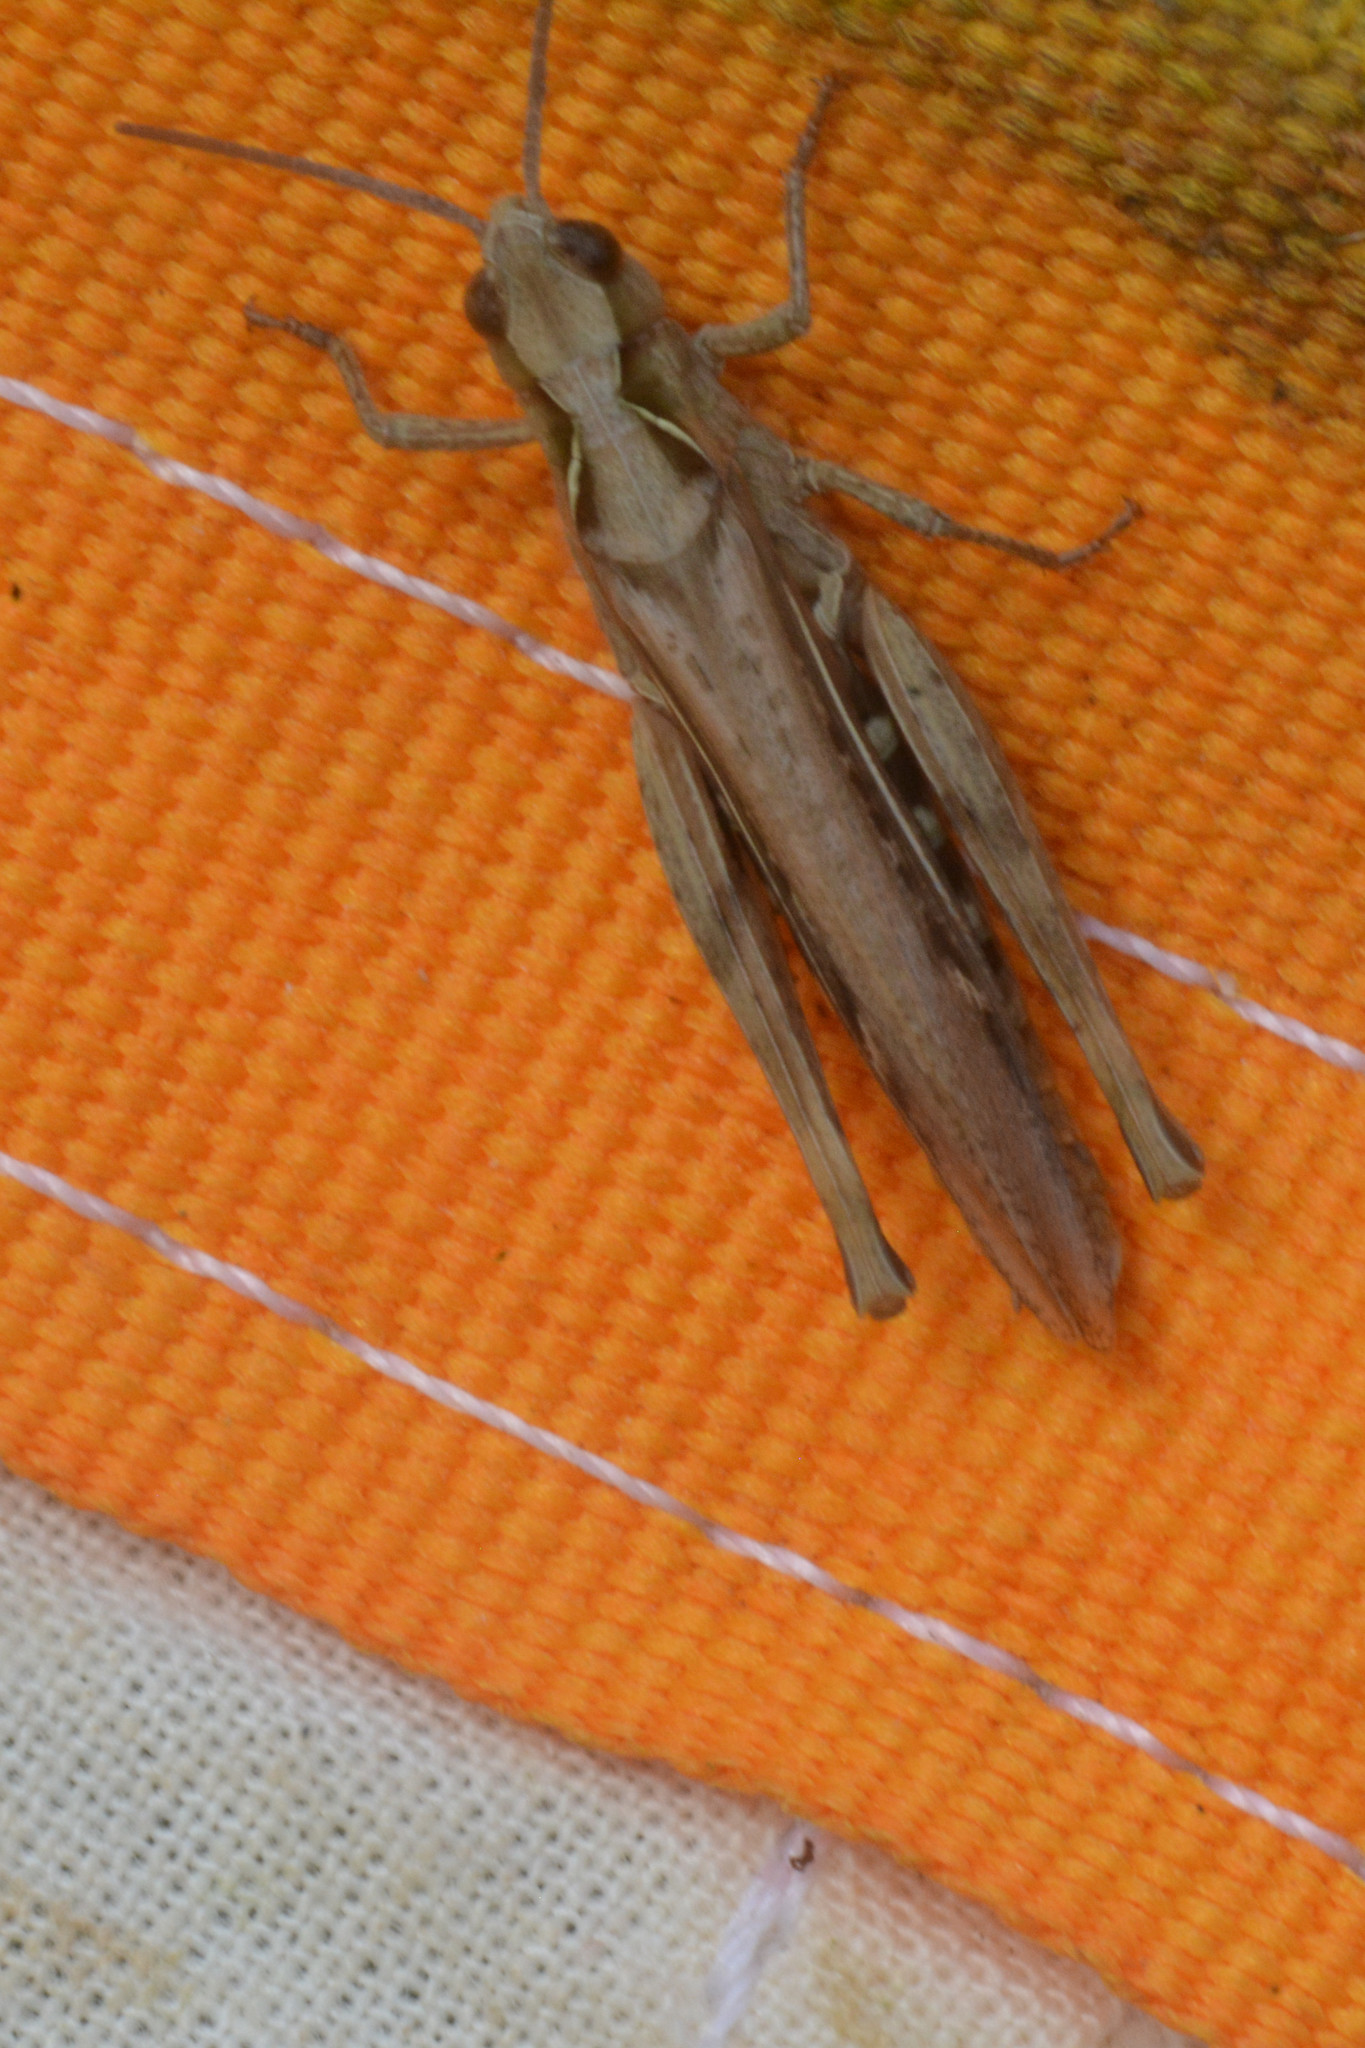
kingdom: Animalia
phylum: Arthropoda
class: Insecta
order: Orthoptera
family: Acrididae
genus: Chorthippus
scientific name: Chorthippus brunneus
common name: Field grasshopper
